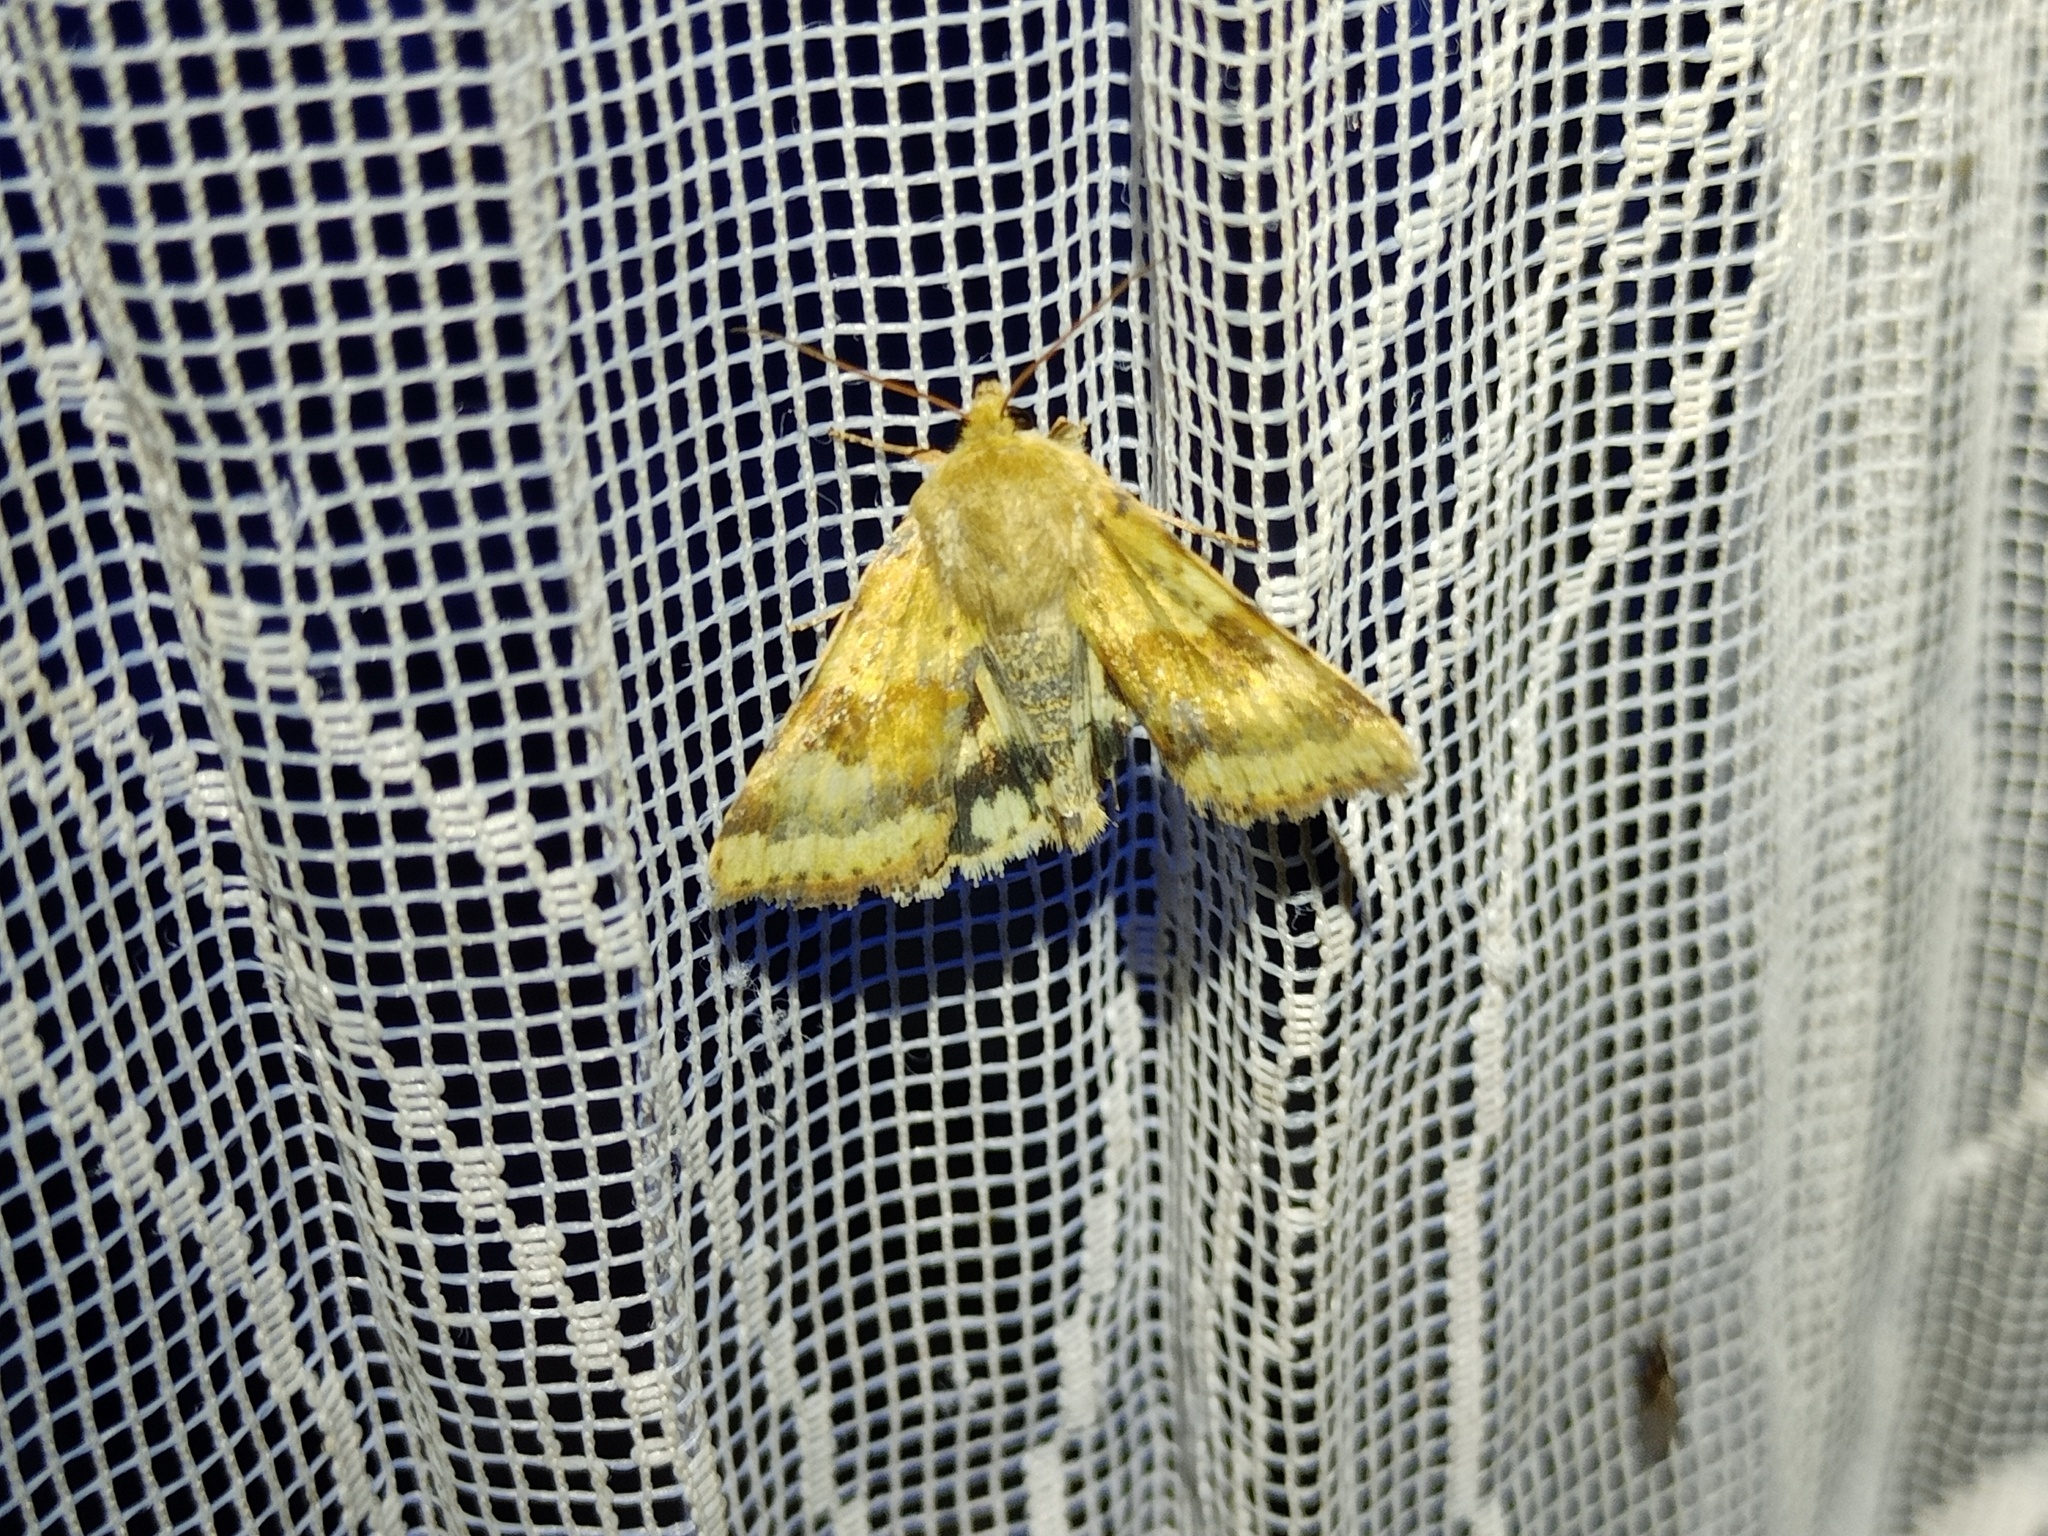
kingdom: Animalia
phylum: Arthropoda
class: Insecta
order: Lepidoptera
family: Noctuidae
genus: Heliothis
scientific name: Heliothis viriplaca
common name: Marbled clover
